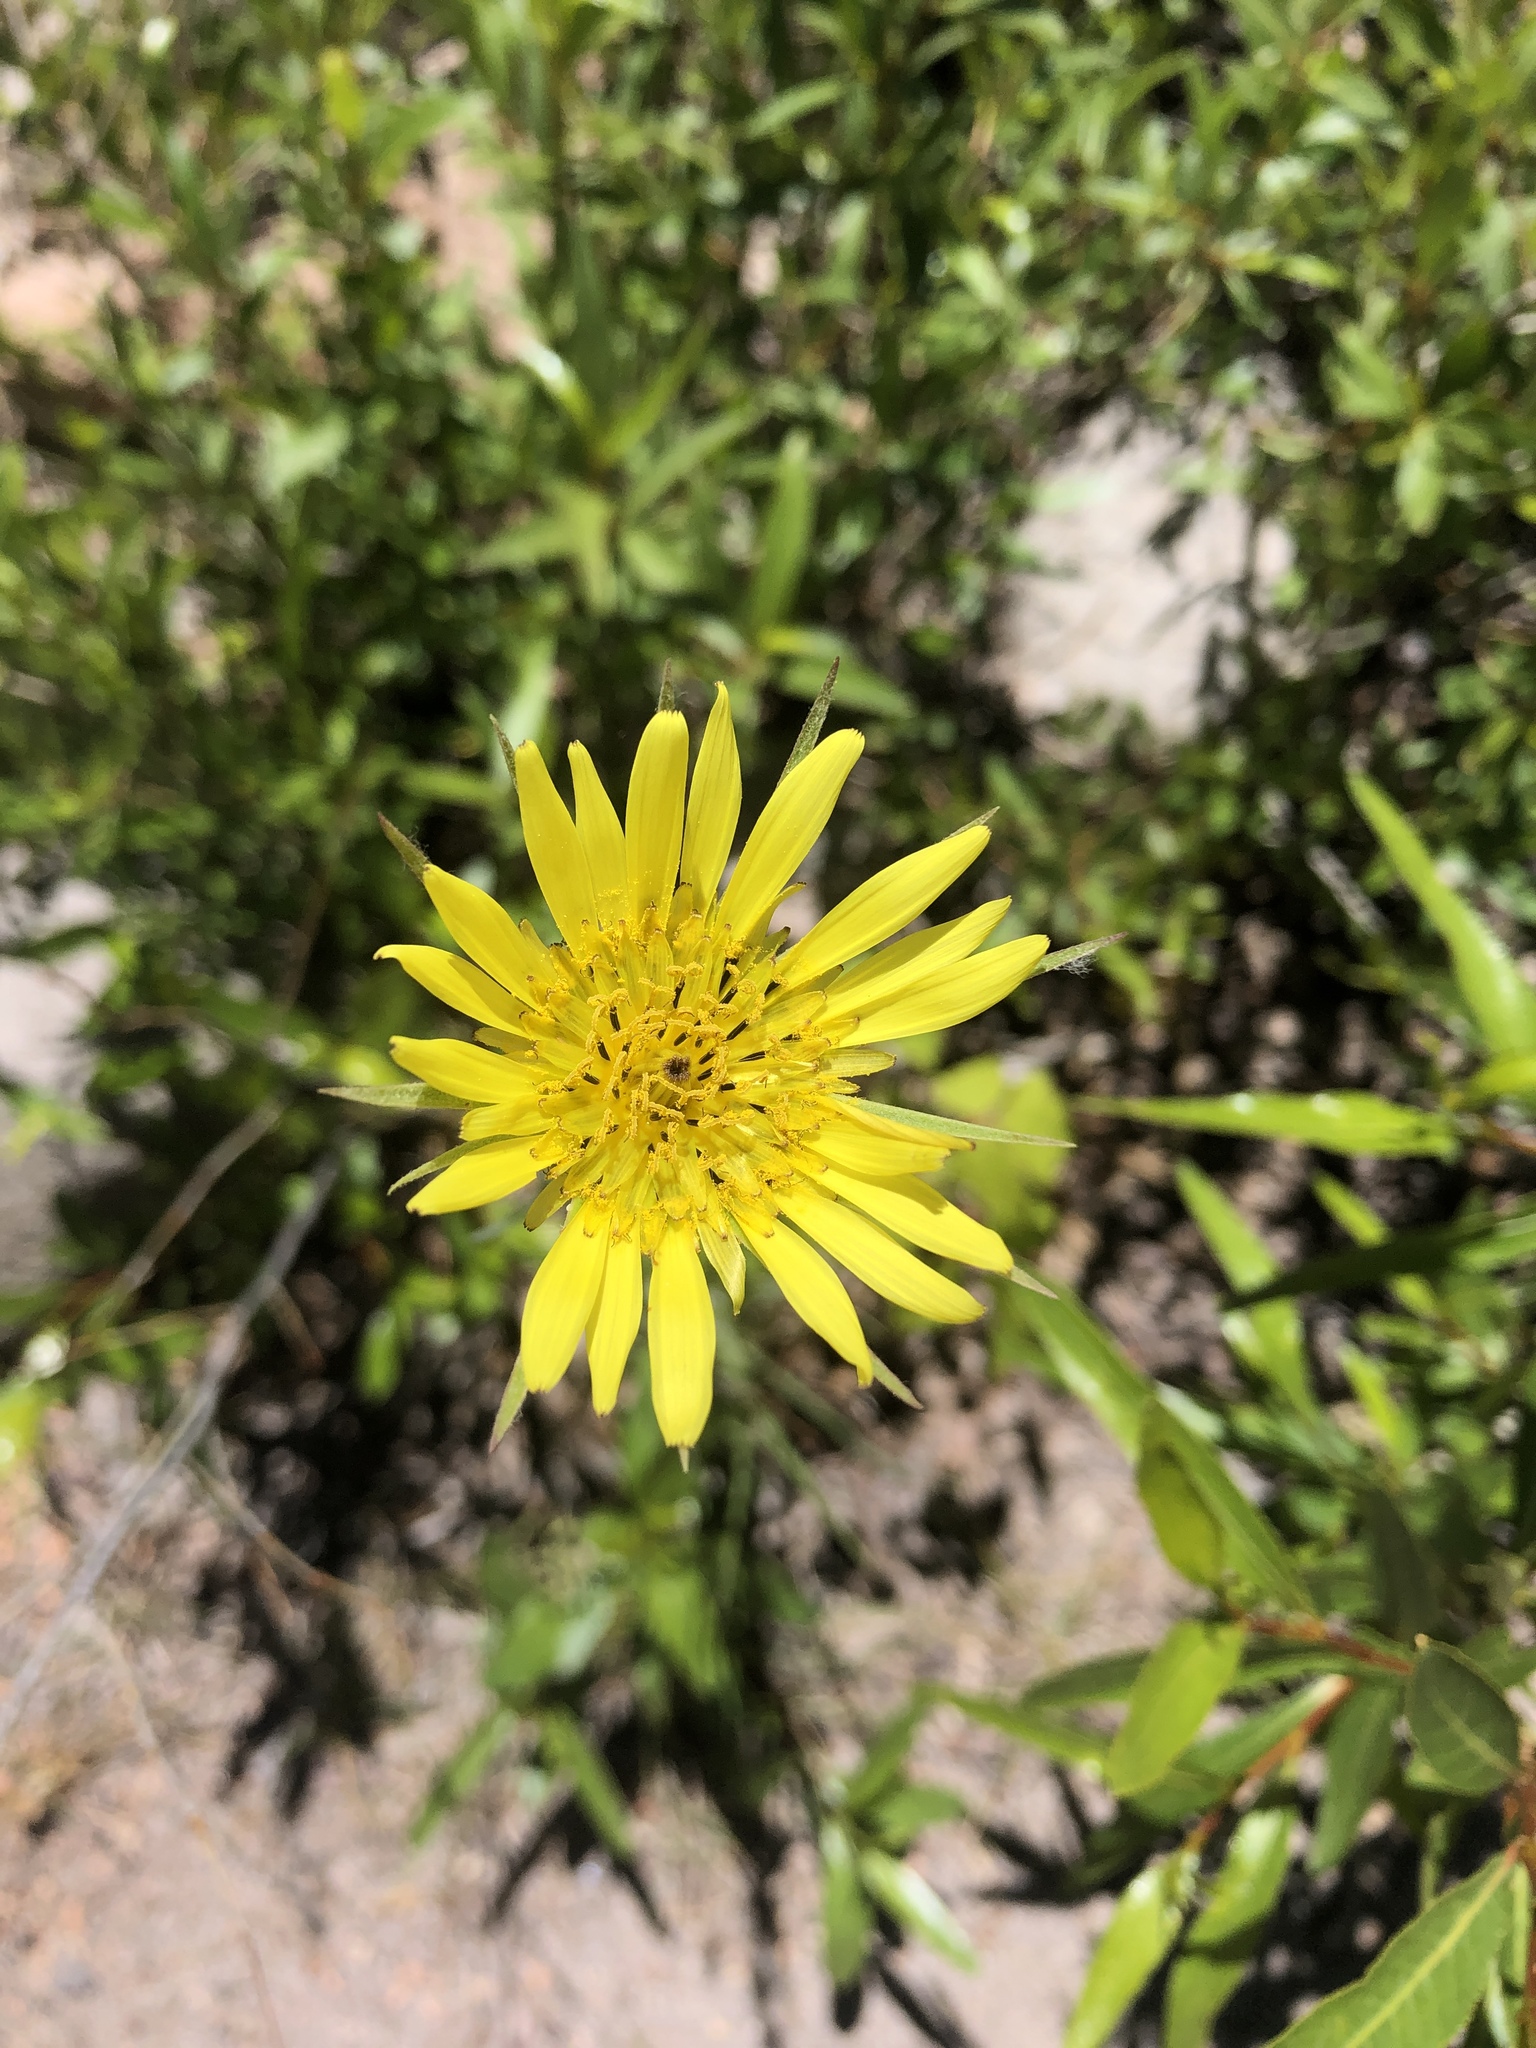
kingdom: Plantae
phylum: Tracheophyta
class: Magnoliopsida
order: Asterales
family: Asteraceae
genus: Tragopogon
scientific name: Tragopogon dubius
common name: Yellow salsify
